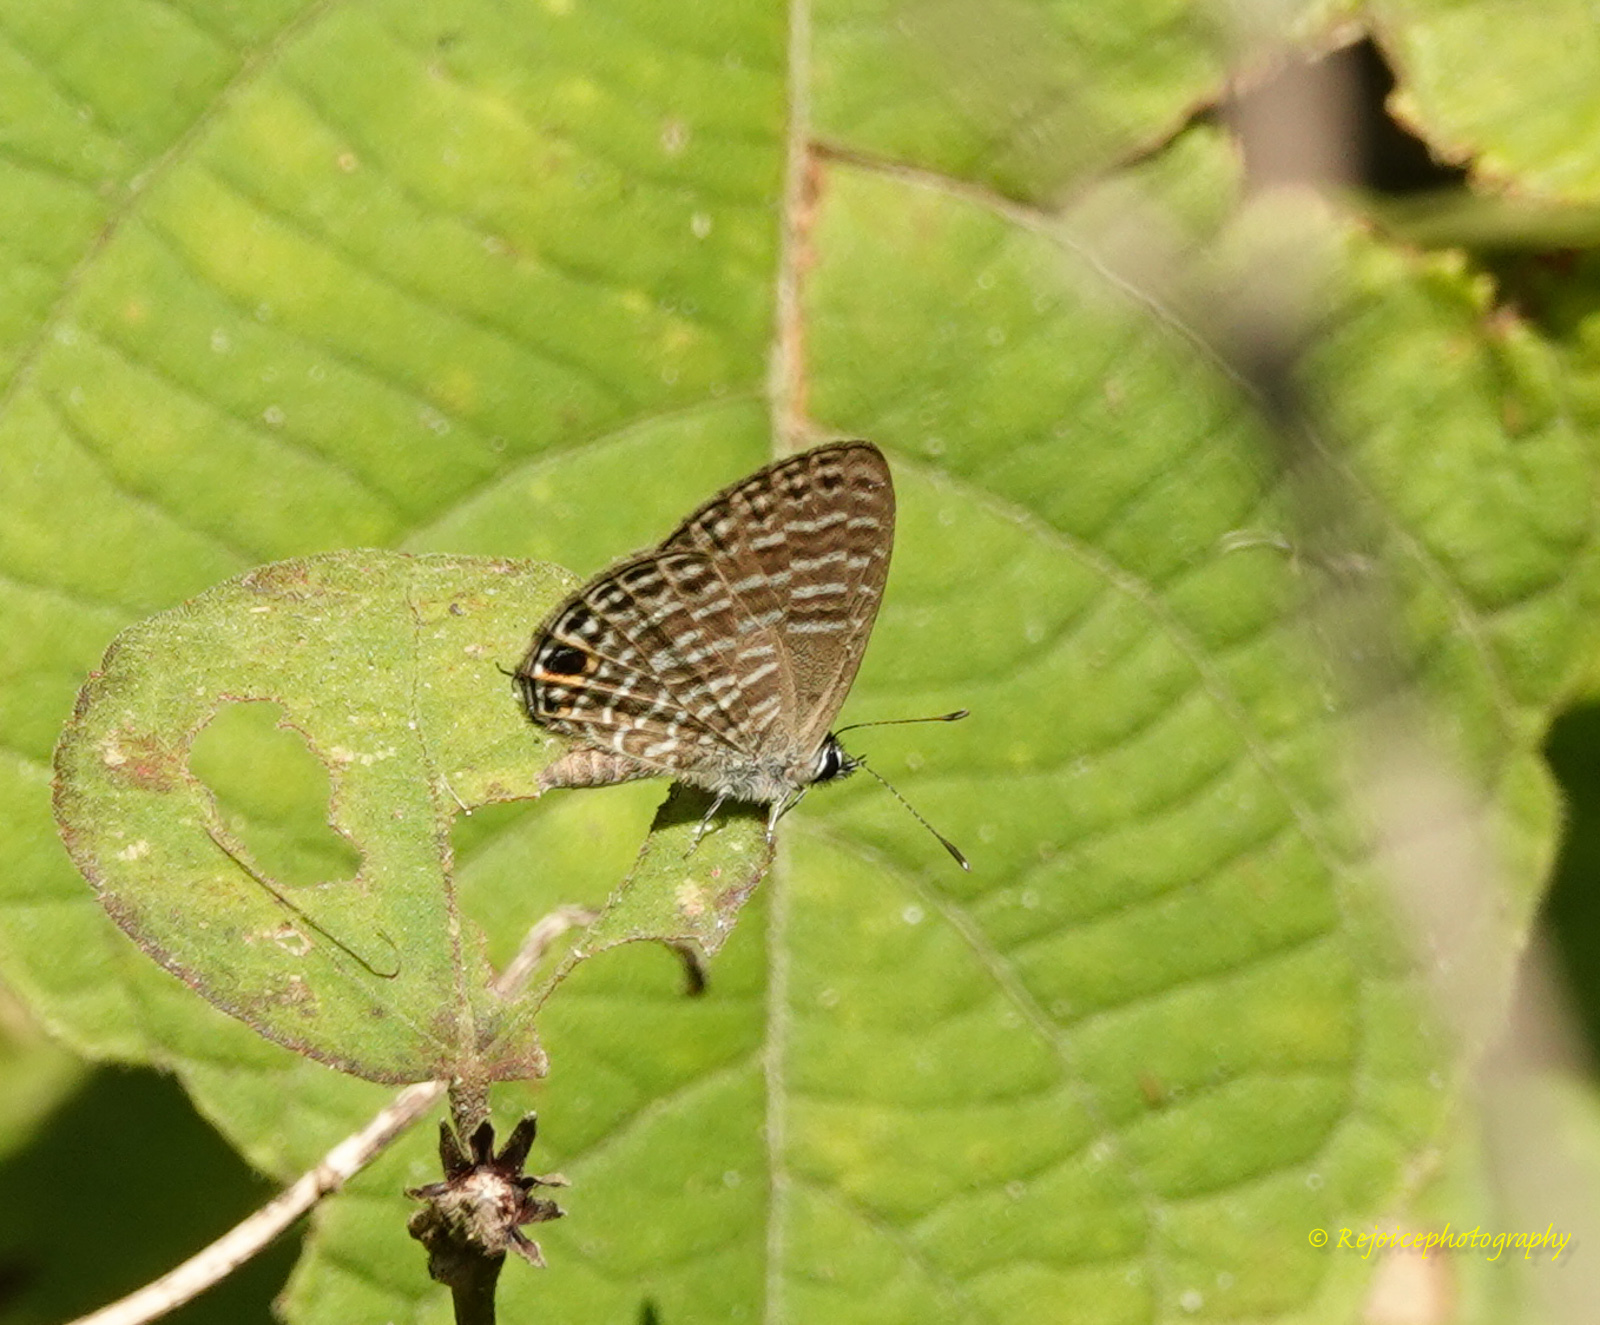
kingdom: Animalia
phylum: Arthropoda
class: Insecta
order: Lepidoptera
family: Lycaenidae
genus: Jamides
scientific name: Jamides bochus
